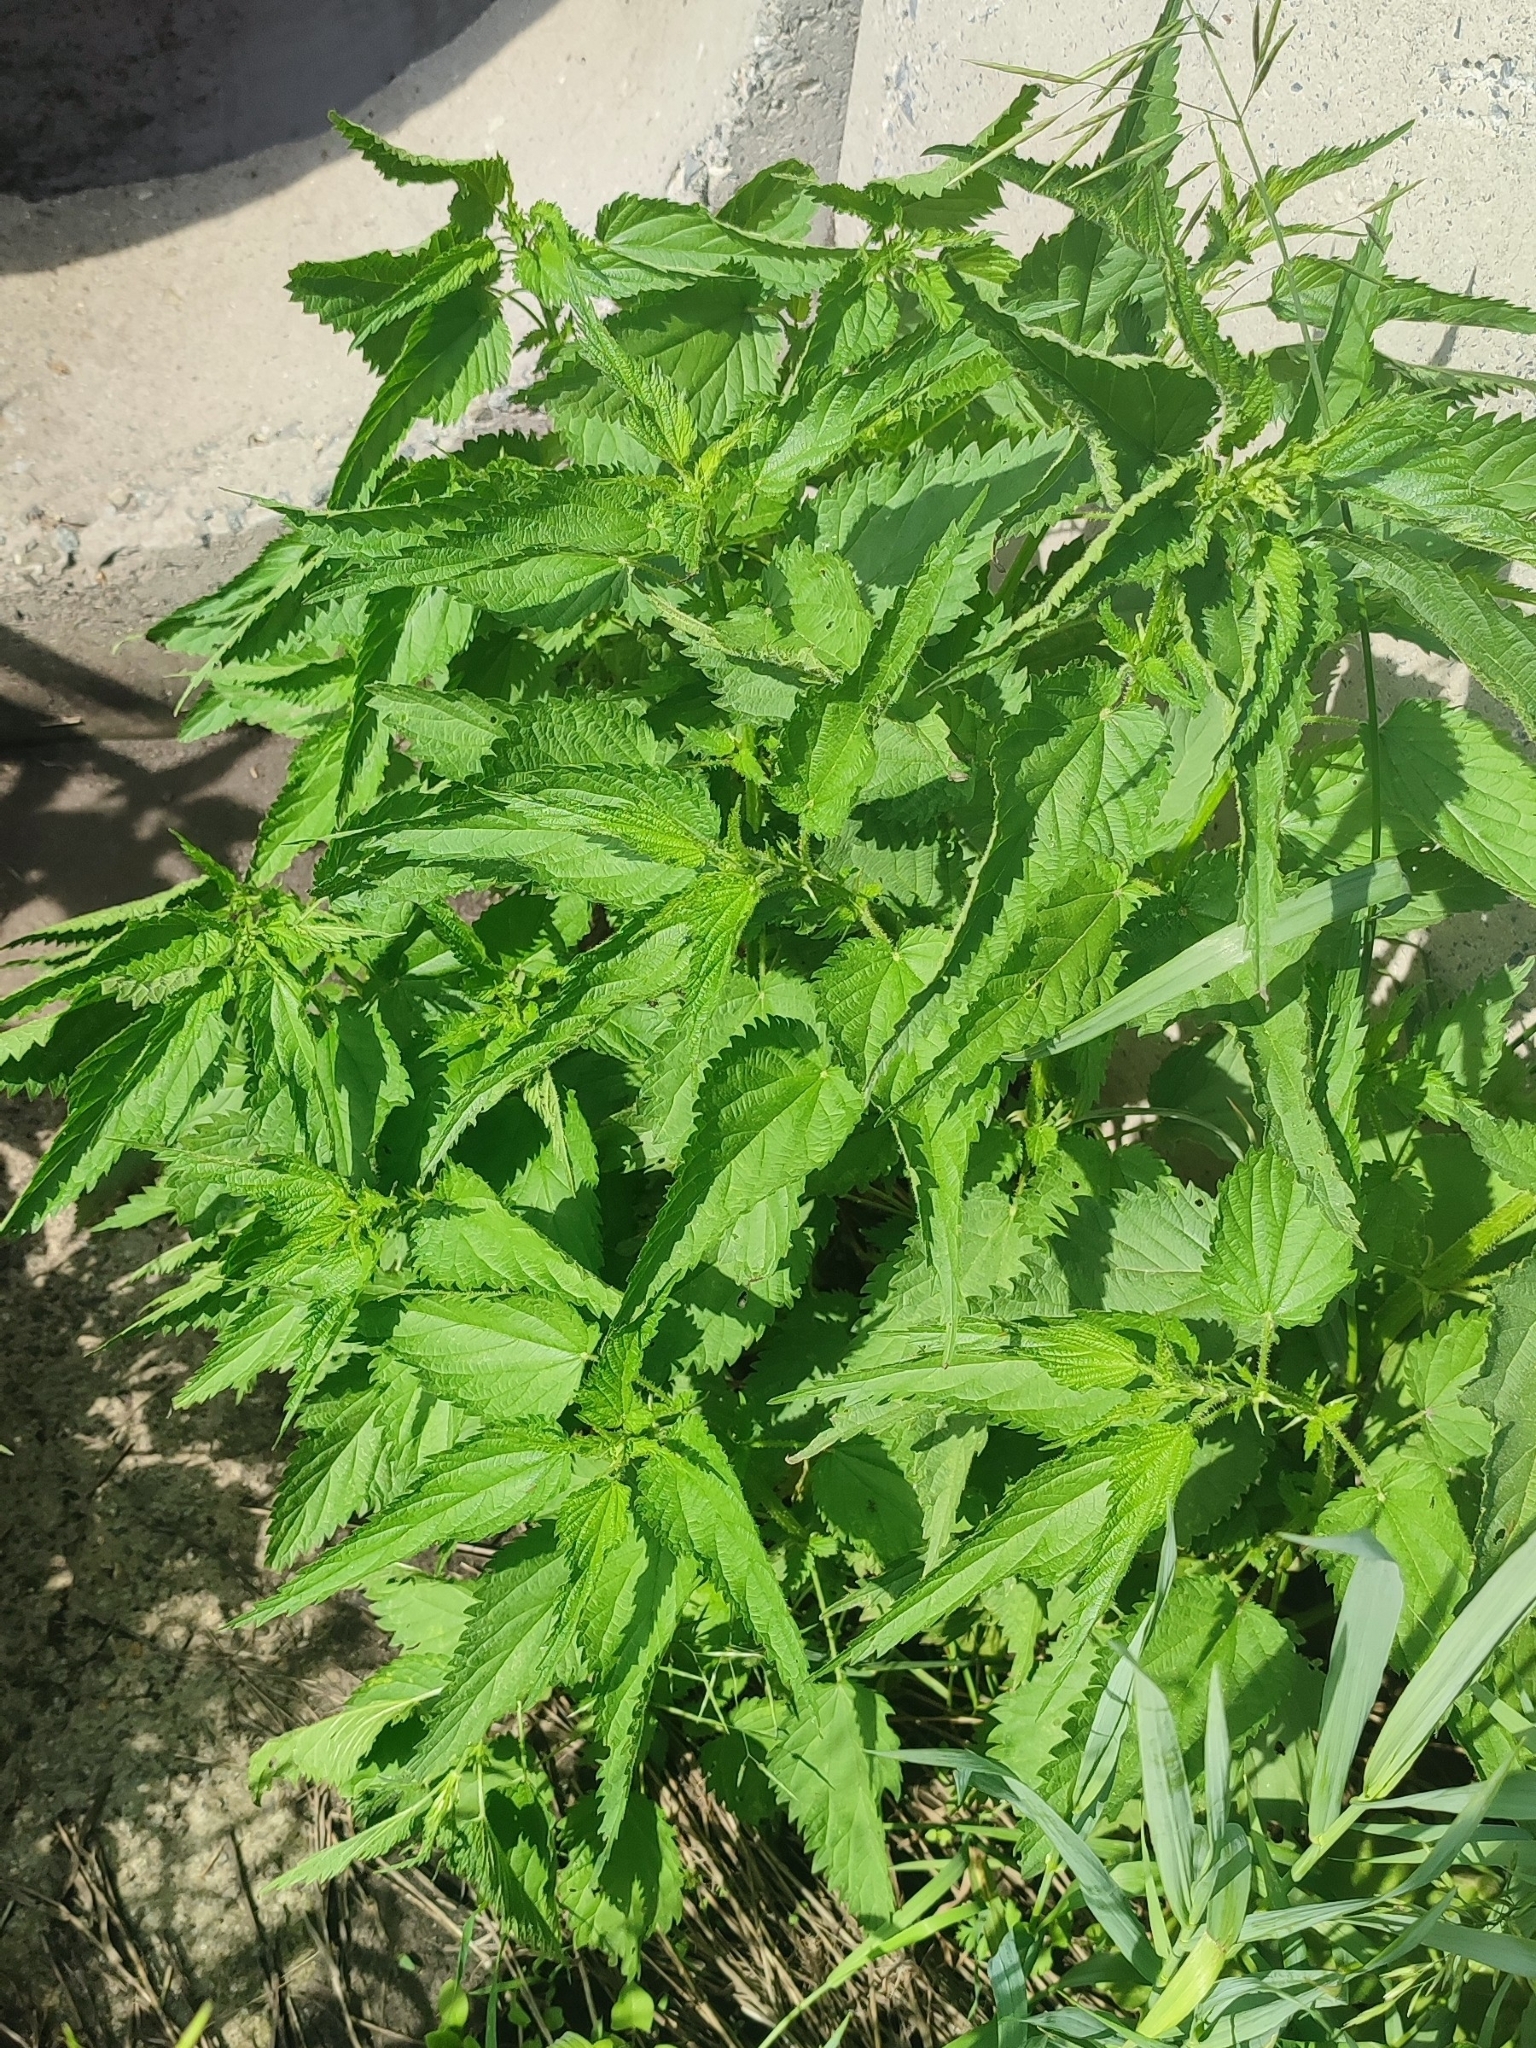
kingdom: Plantae
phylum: Tracheophyta
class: Magnoliopsida
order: Rosales
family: Urticaceae
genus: Urtica
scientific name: Urtica dioica
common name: Common nettle
